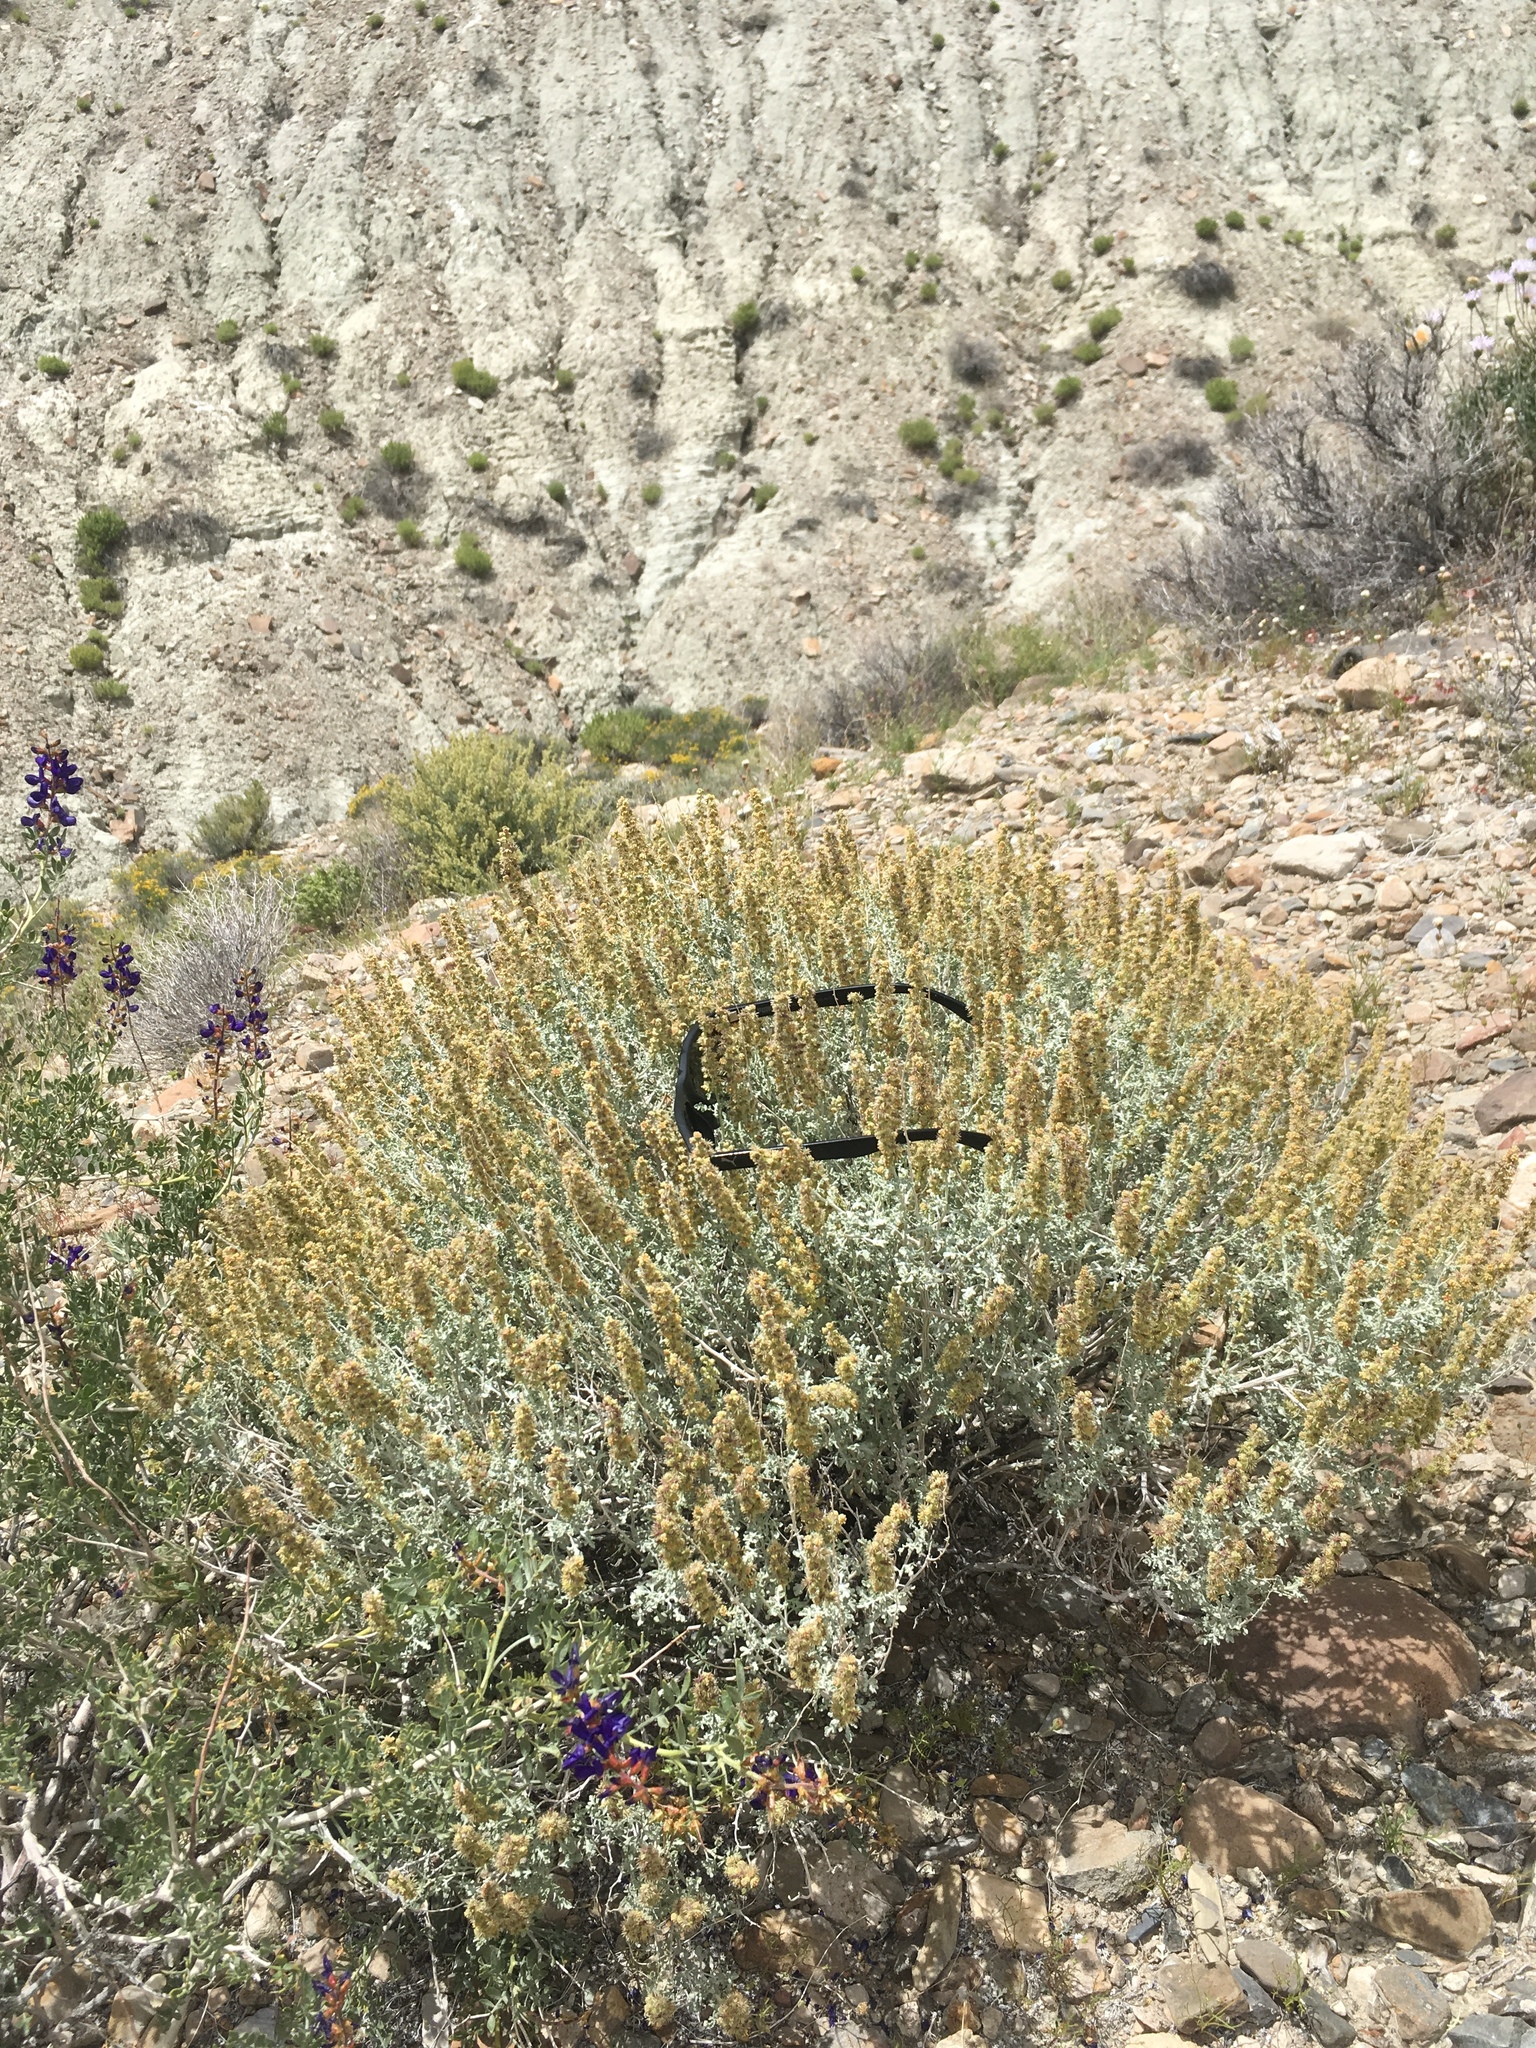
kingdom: Plantae
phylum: Tracheophyta
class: Magnoliopsida
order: Asterales
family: Asteraceae
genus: Ambrosia
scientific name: Ambrosia dumosa
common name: Bur-sage
